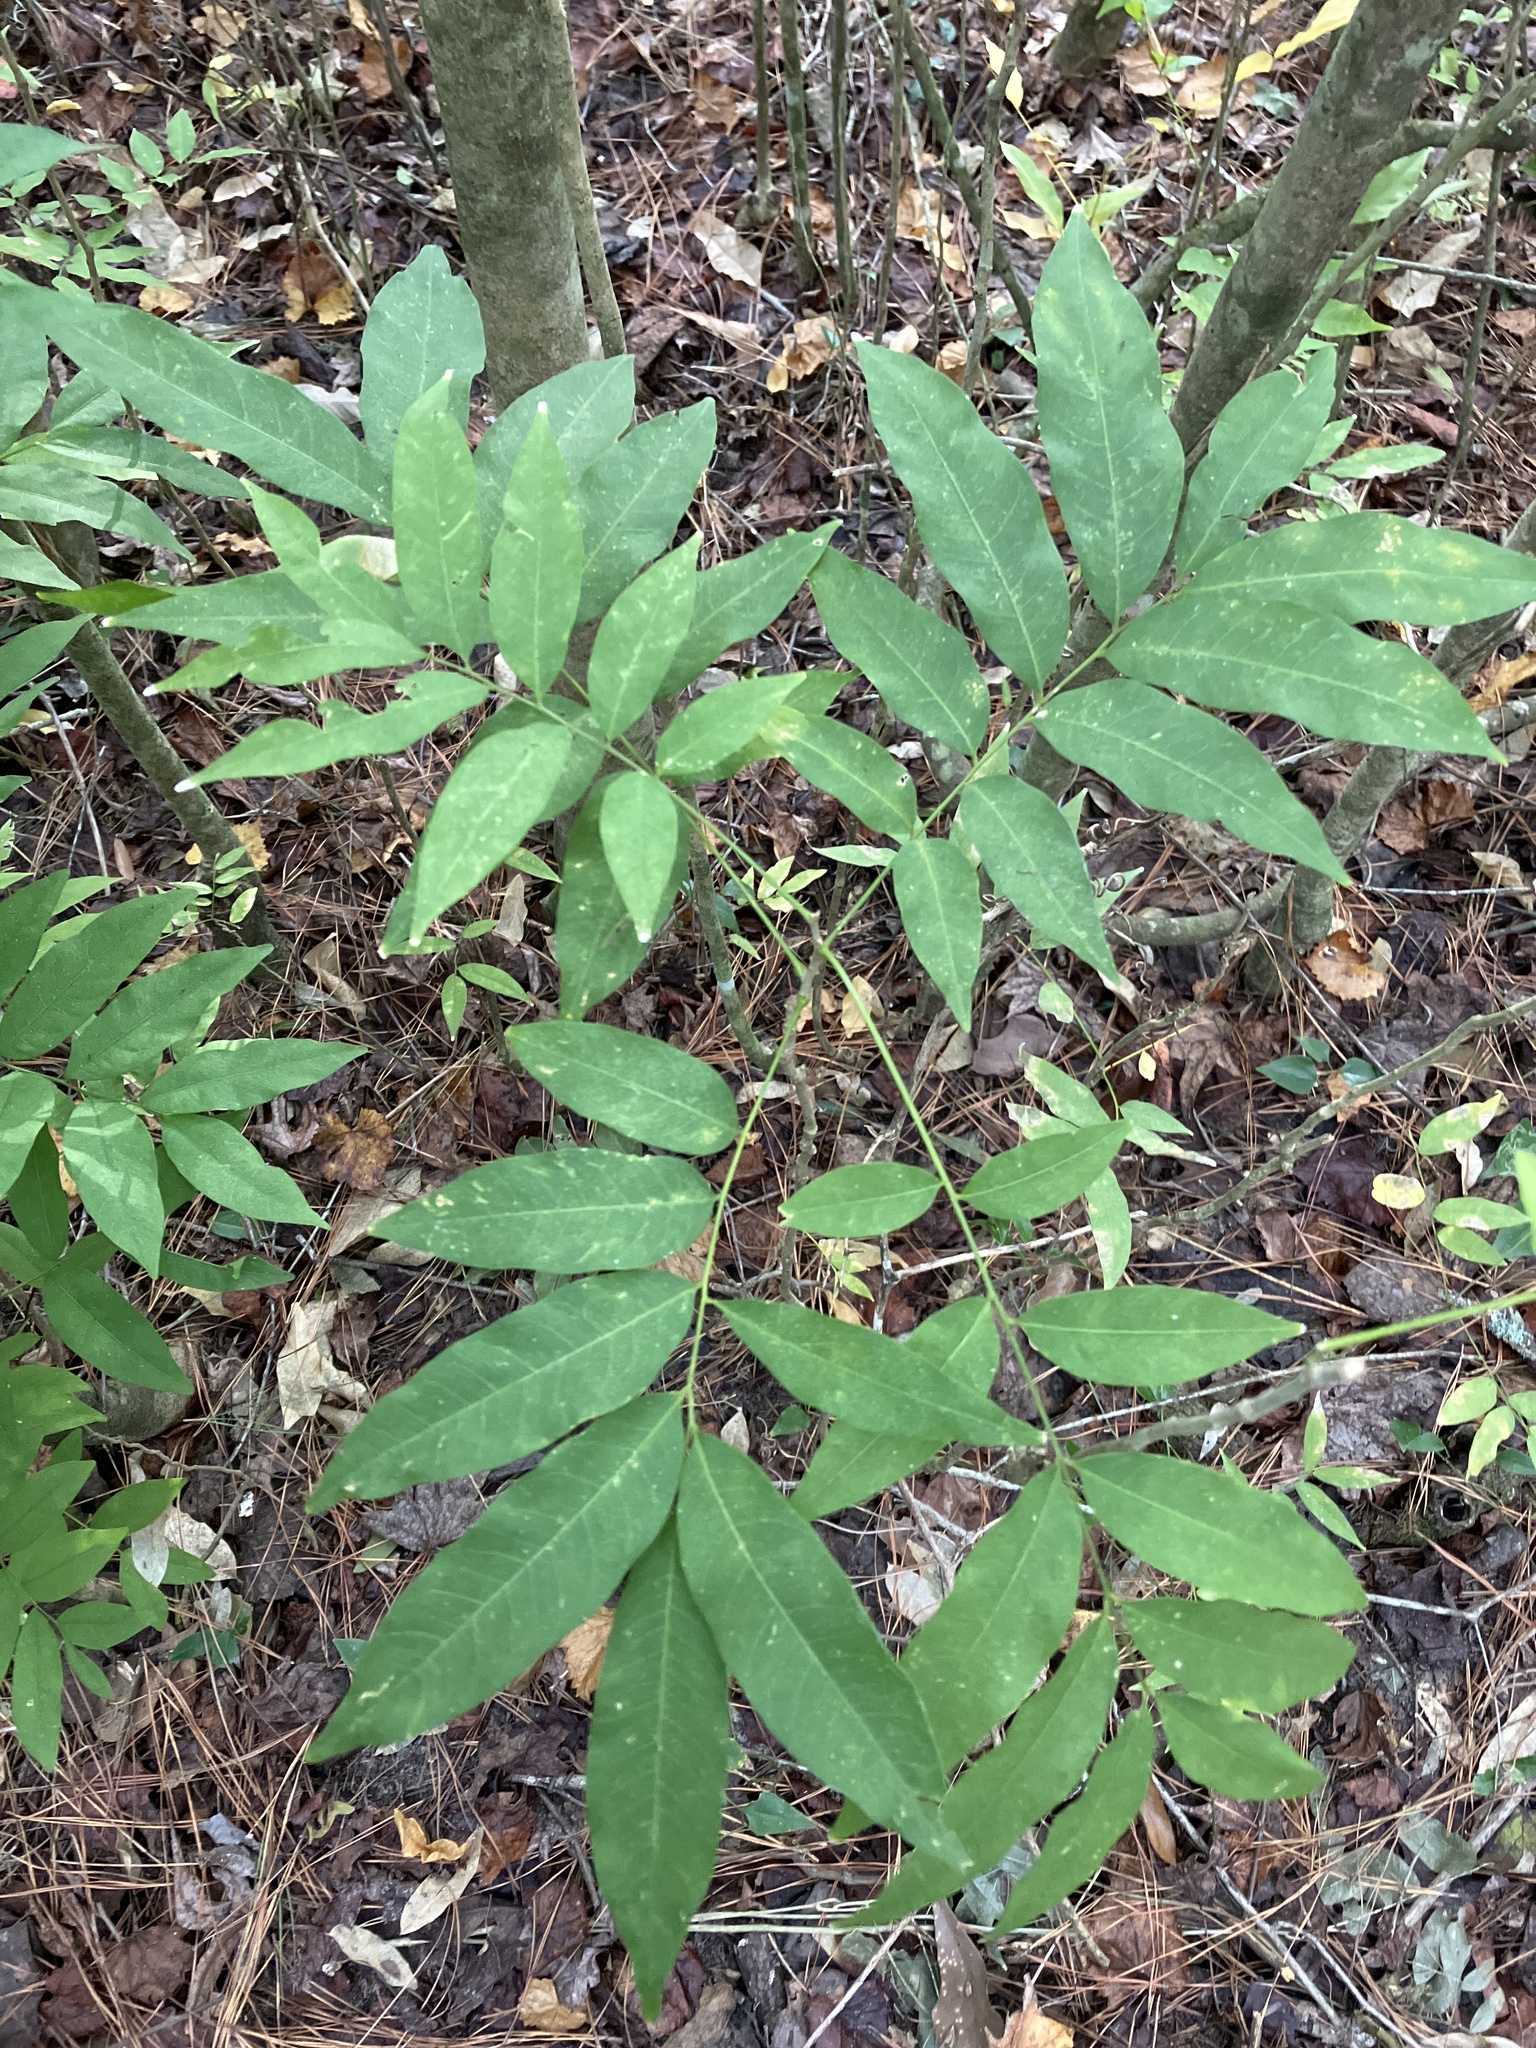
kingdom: Plantae
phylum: Tracheophyta
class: Magnoliopsida
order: Sapindales
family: Sapindaceae
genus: Sapindus
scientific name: Sapindus saponaria
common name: Wingleaf soapberry
